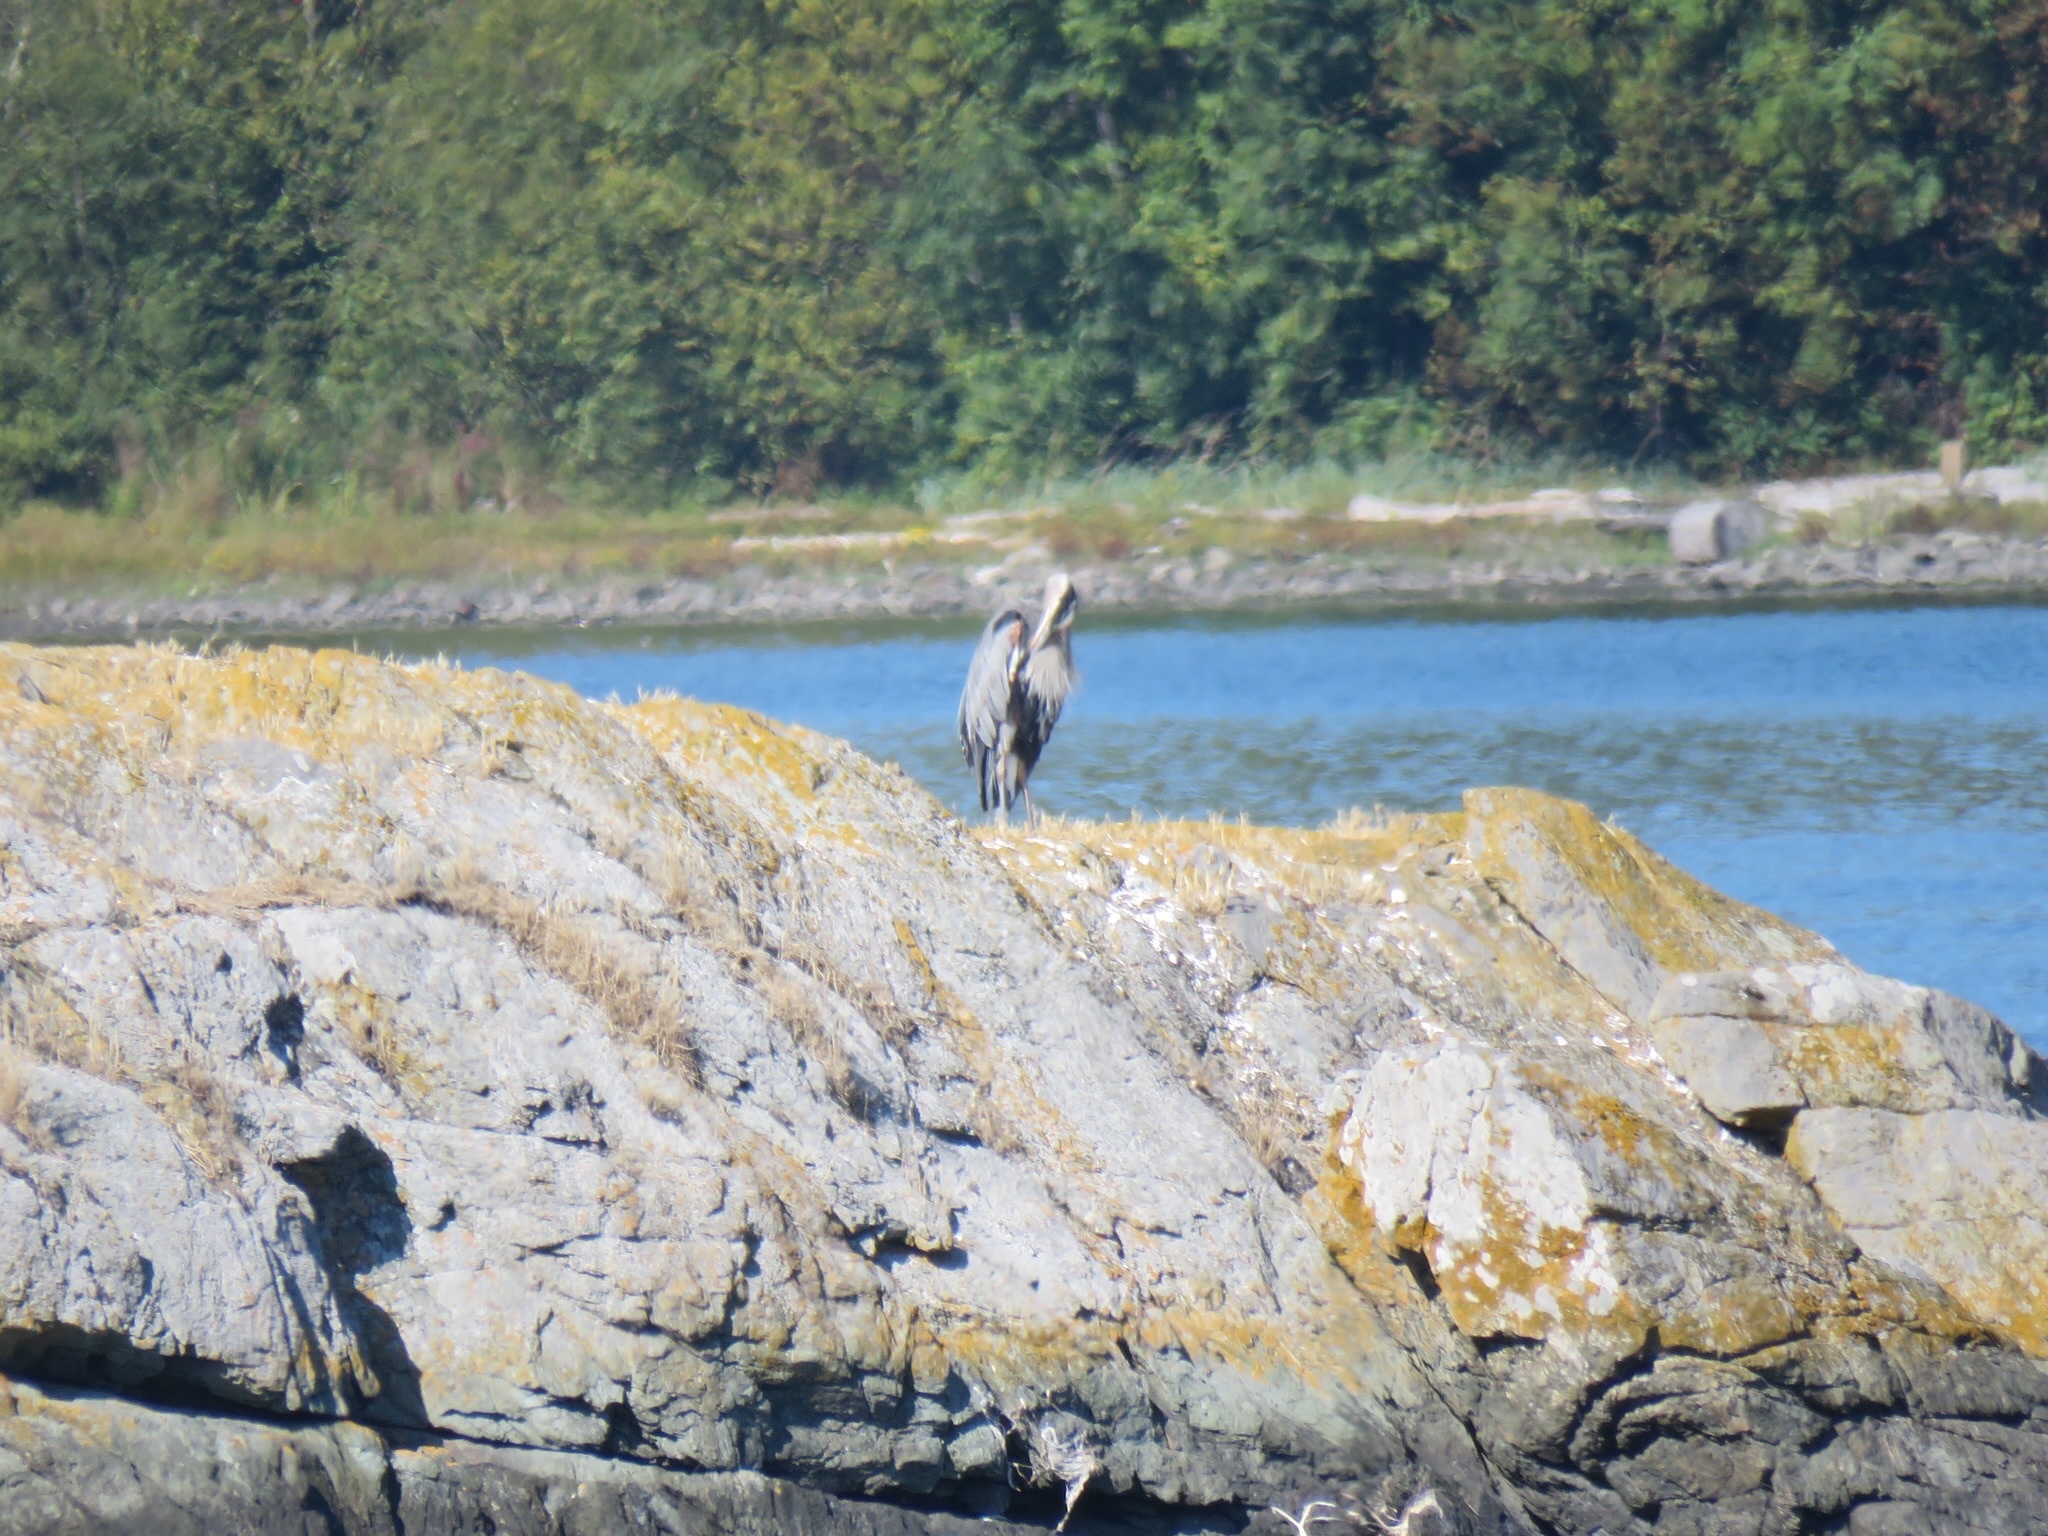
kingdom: Animalia
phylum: Chordata
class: Aves
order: Pelecaniformes
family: Ardeidae
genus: Ardea
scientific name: Ardea herodias
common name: Great blue heron
